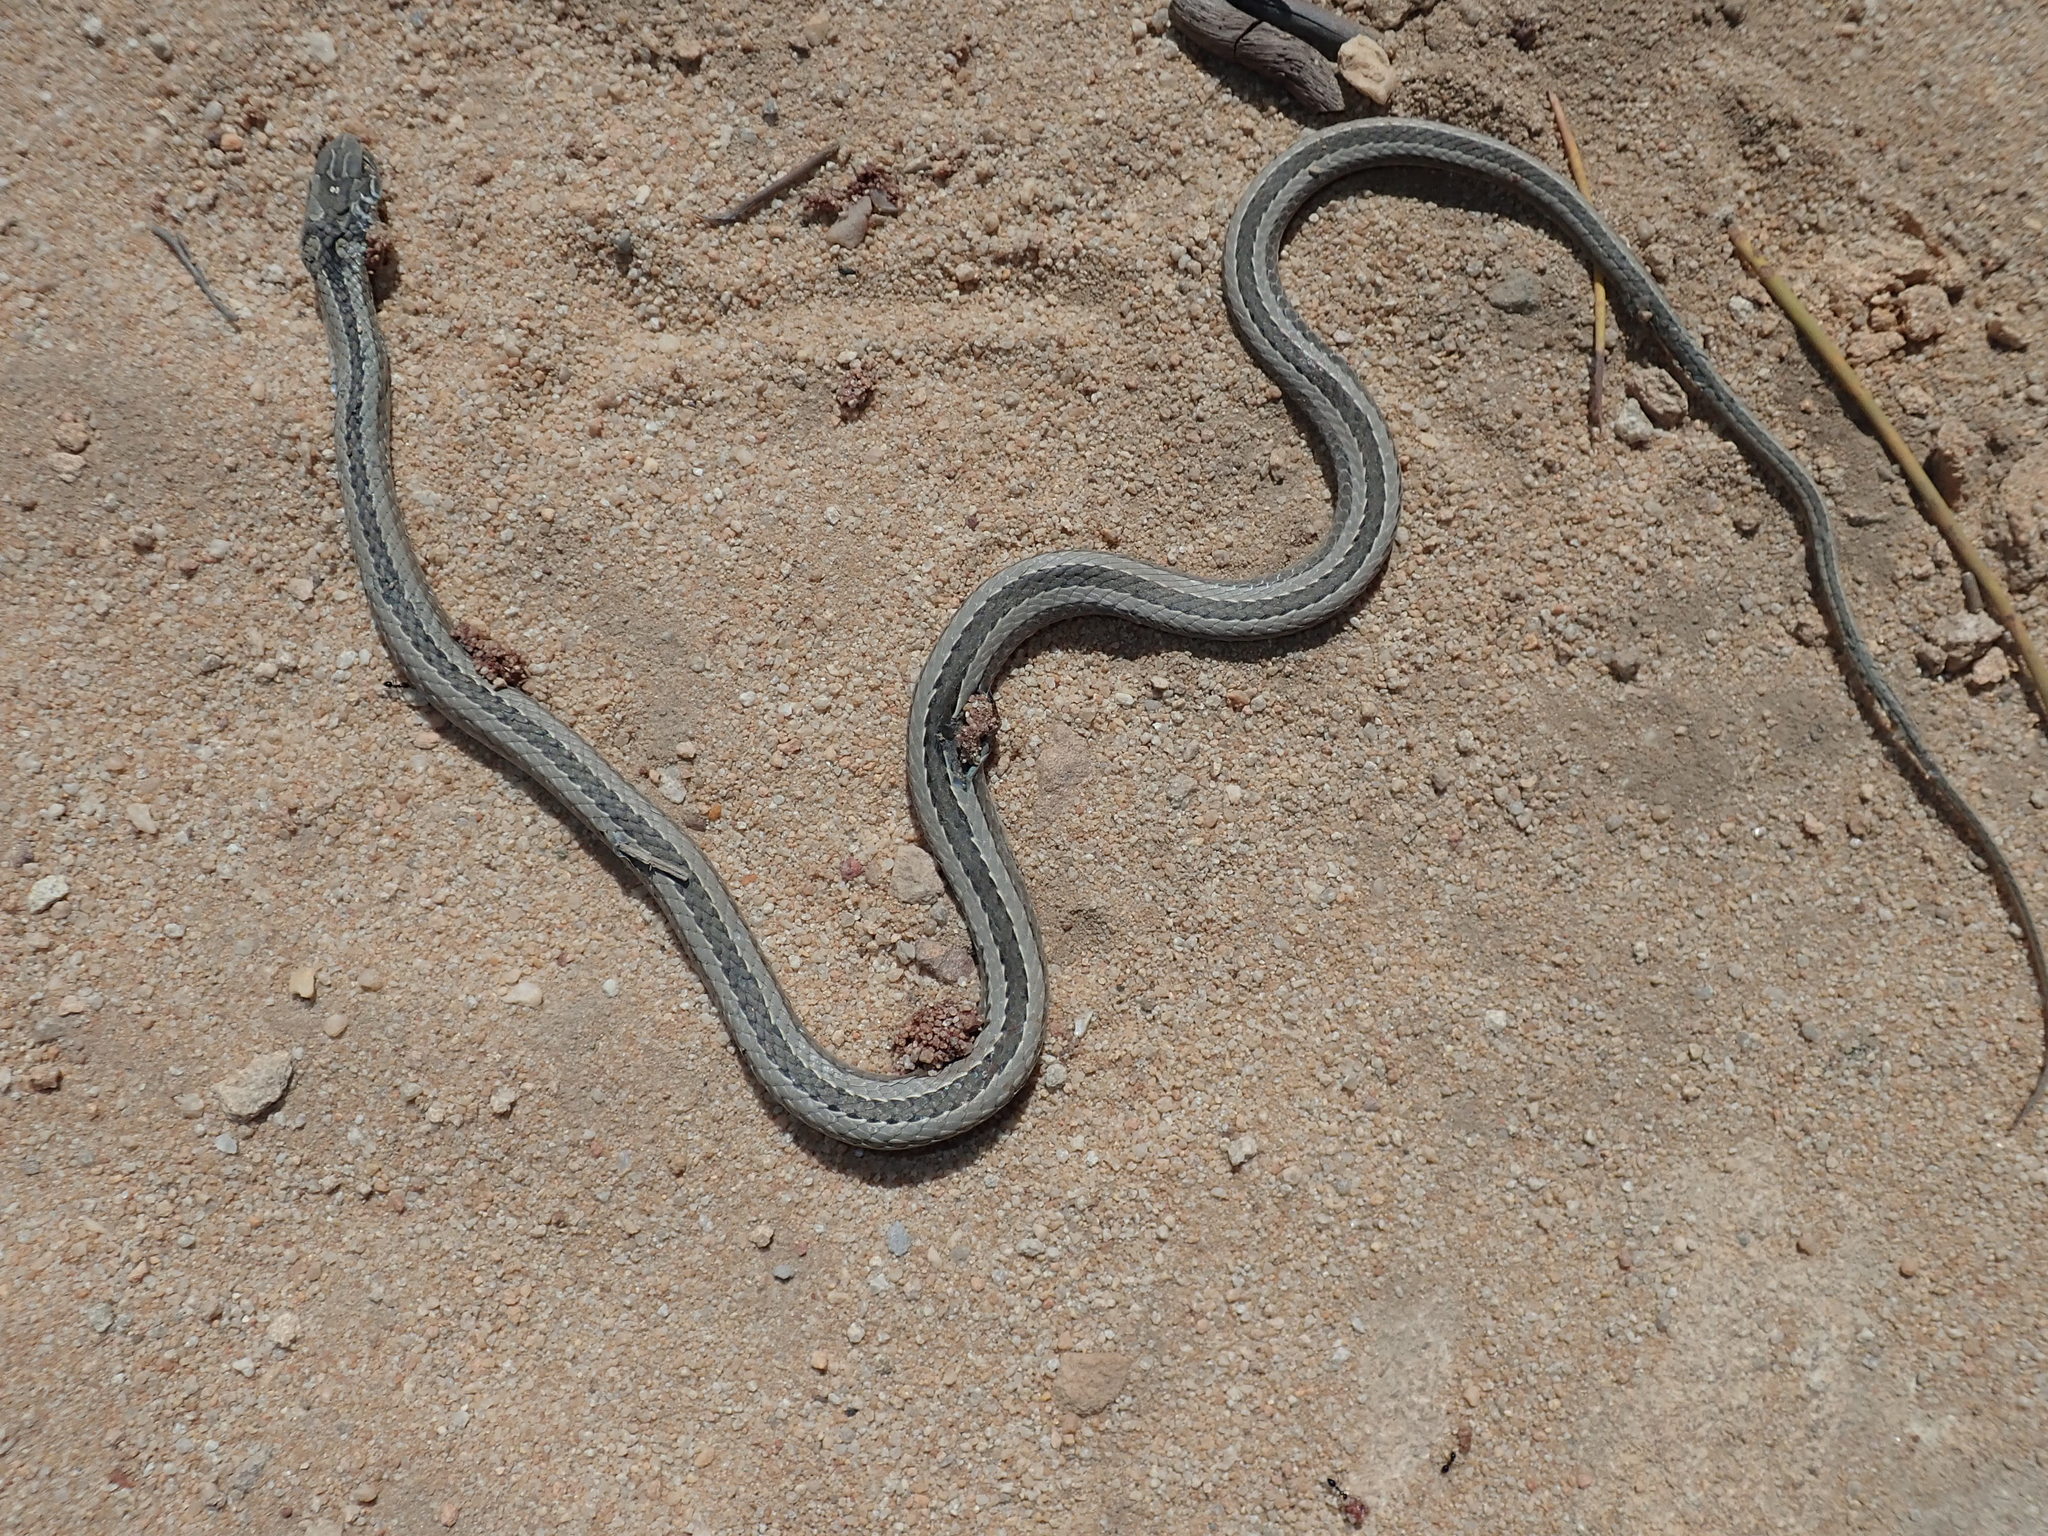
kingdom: Animalia
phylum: Chordata
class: Squamata
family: Psammophiidae
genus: Psammophis
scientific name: Psammophis crucifer
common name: Cross-marked grass snake
